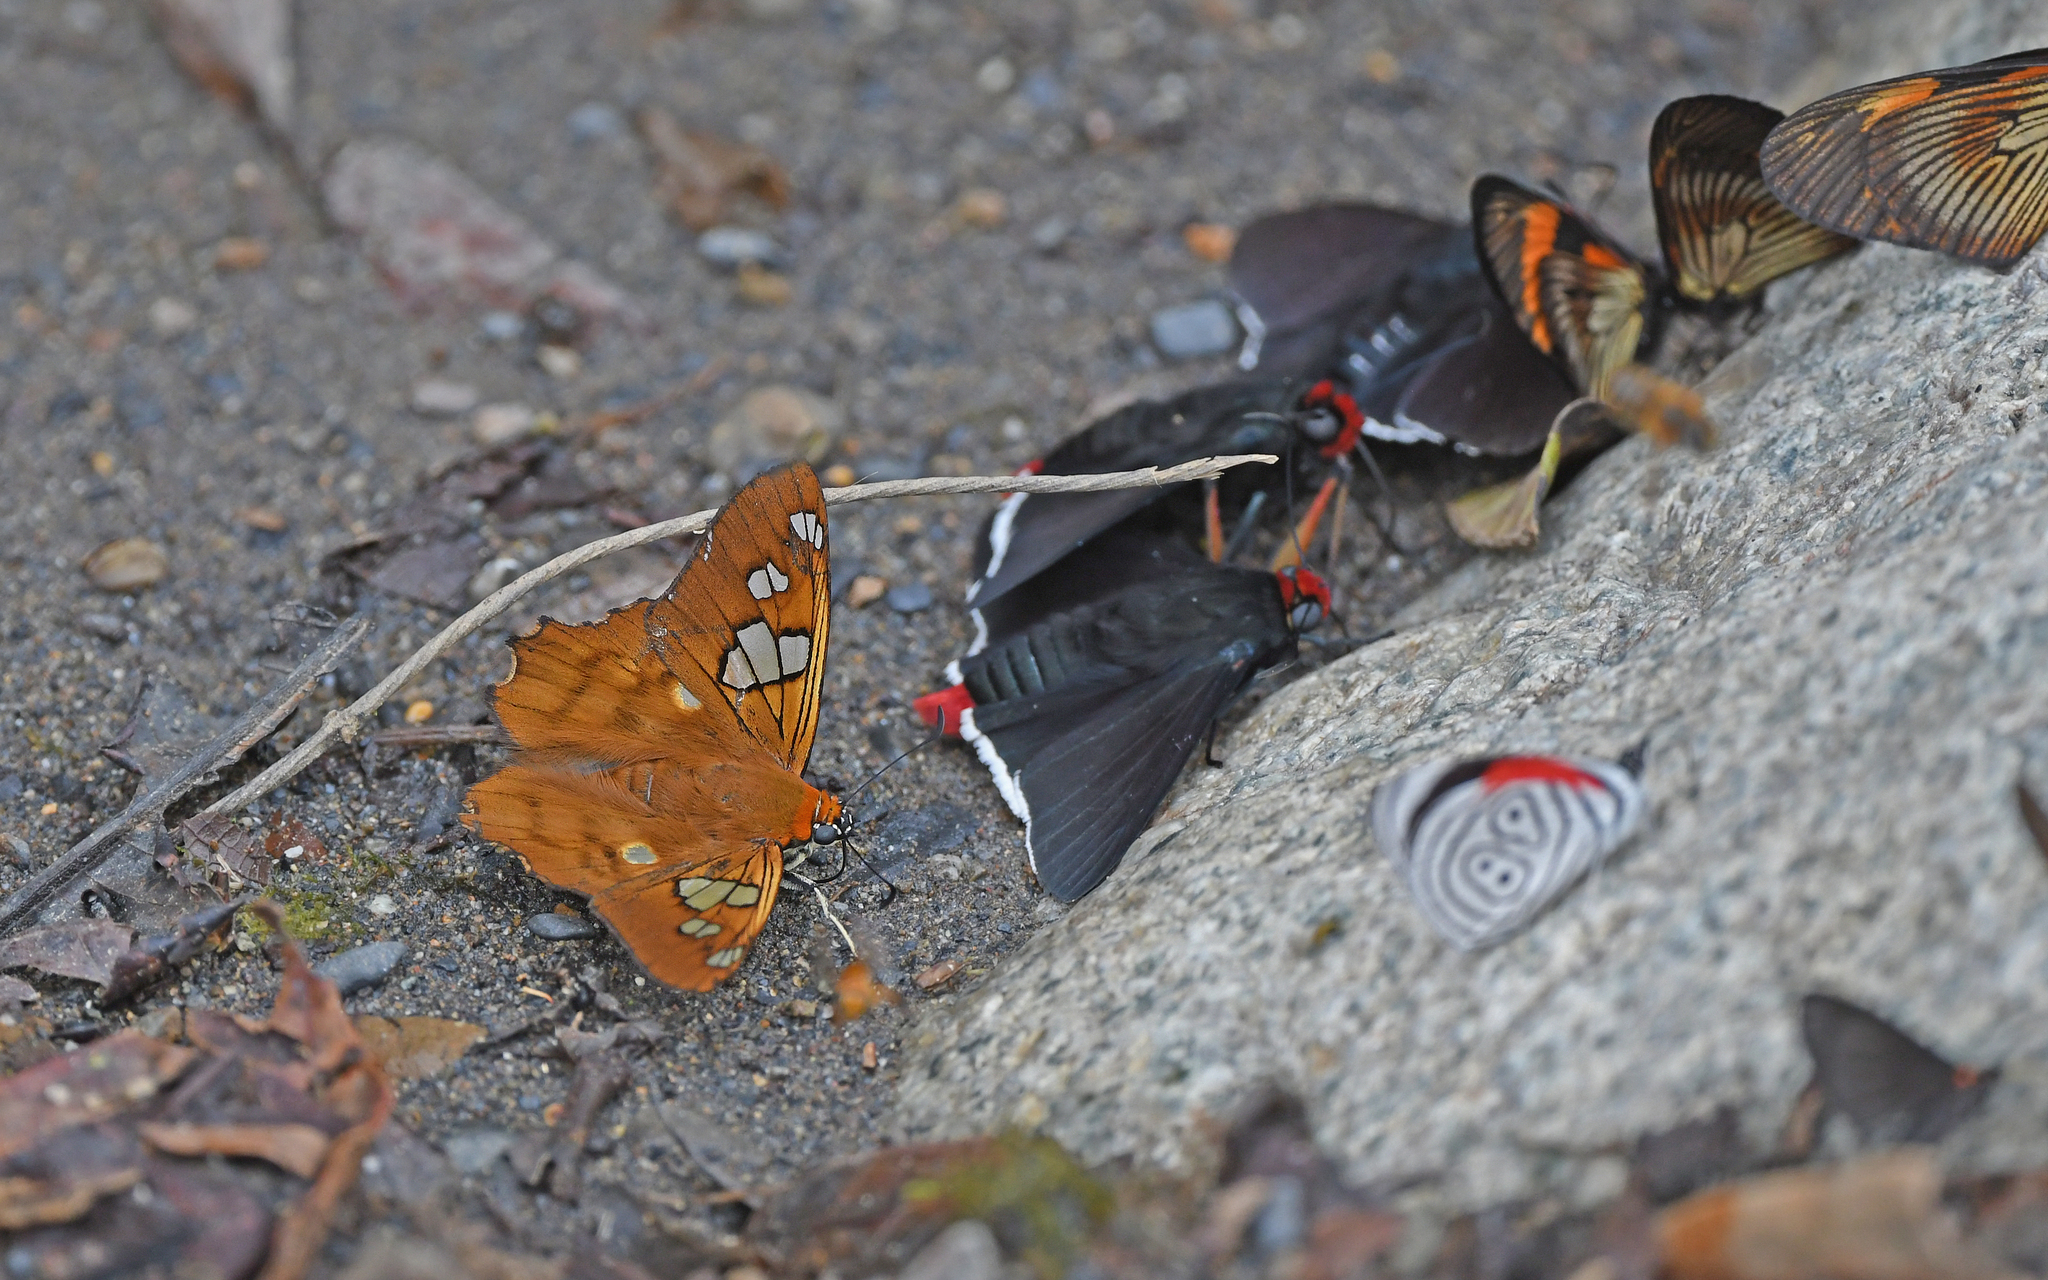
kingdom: Animalia
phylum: Arthropoda
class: Insecta
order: Lepidoptera
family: Hesperiidae
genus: Myscelus
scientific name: Myscelus phoronis
